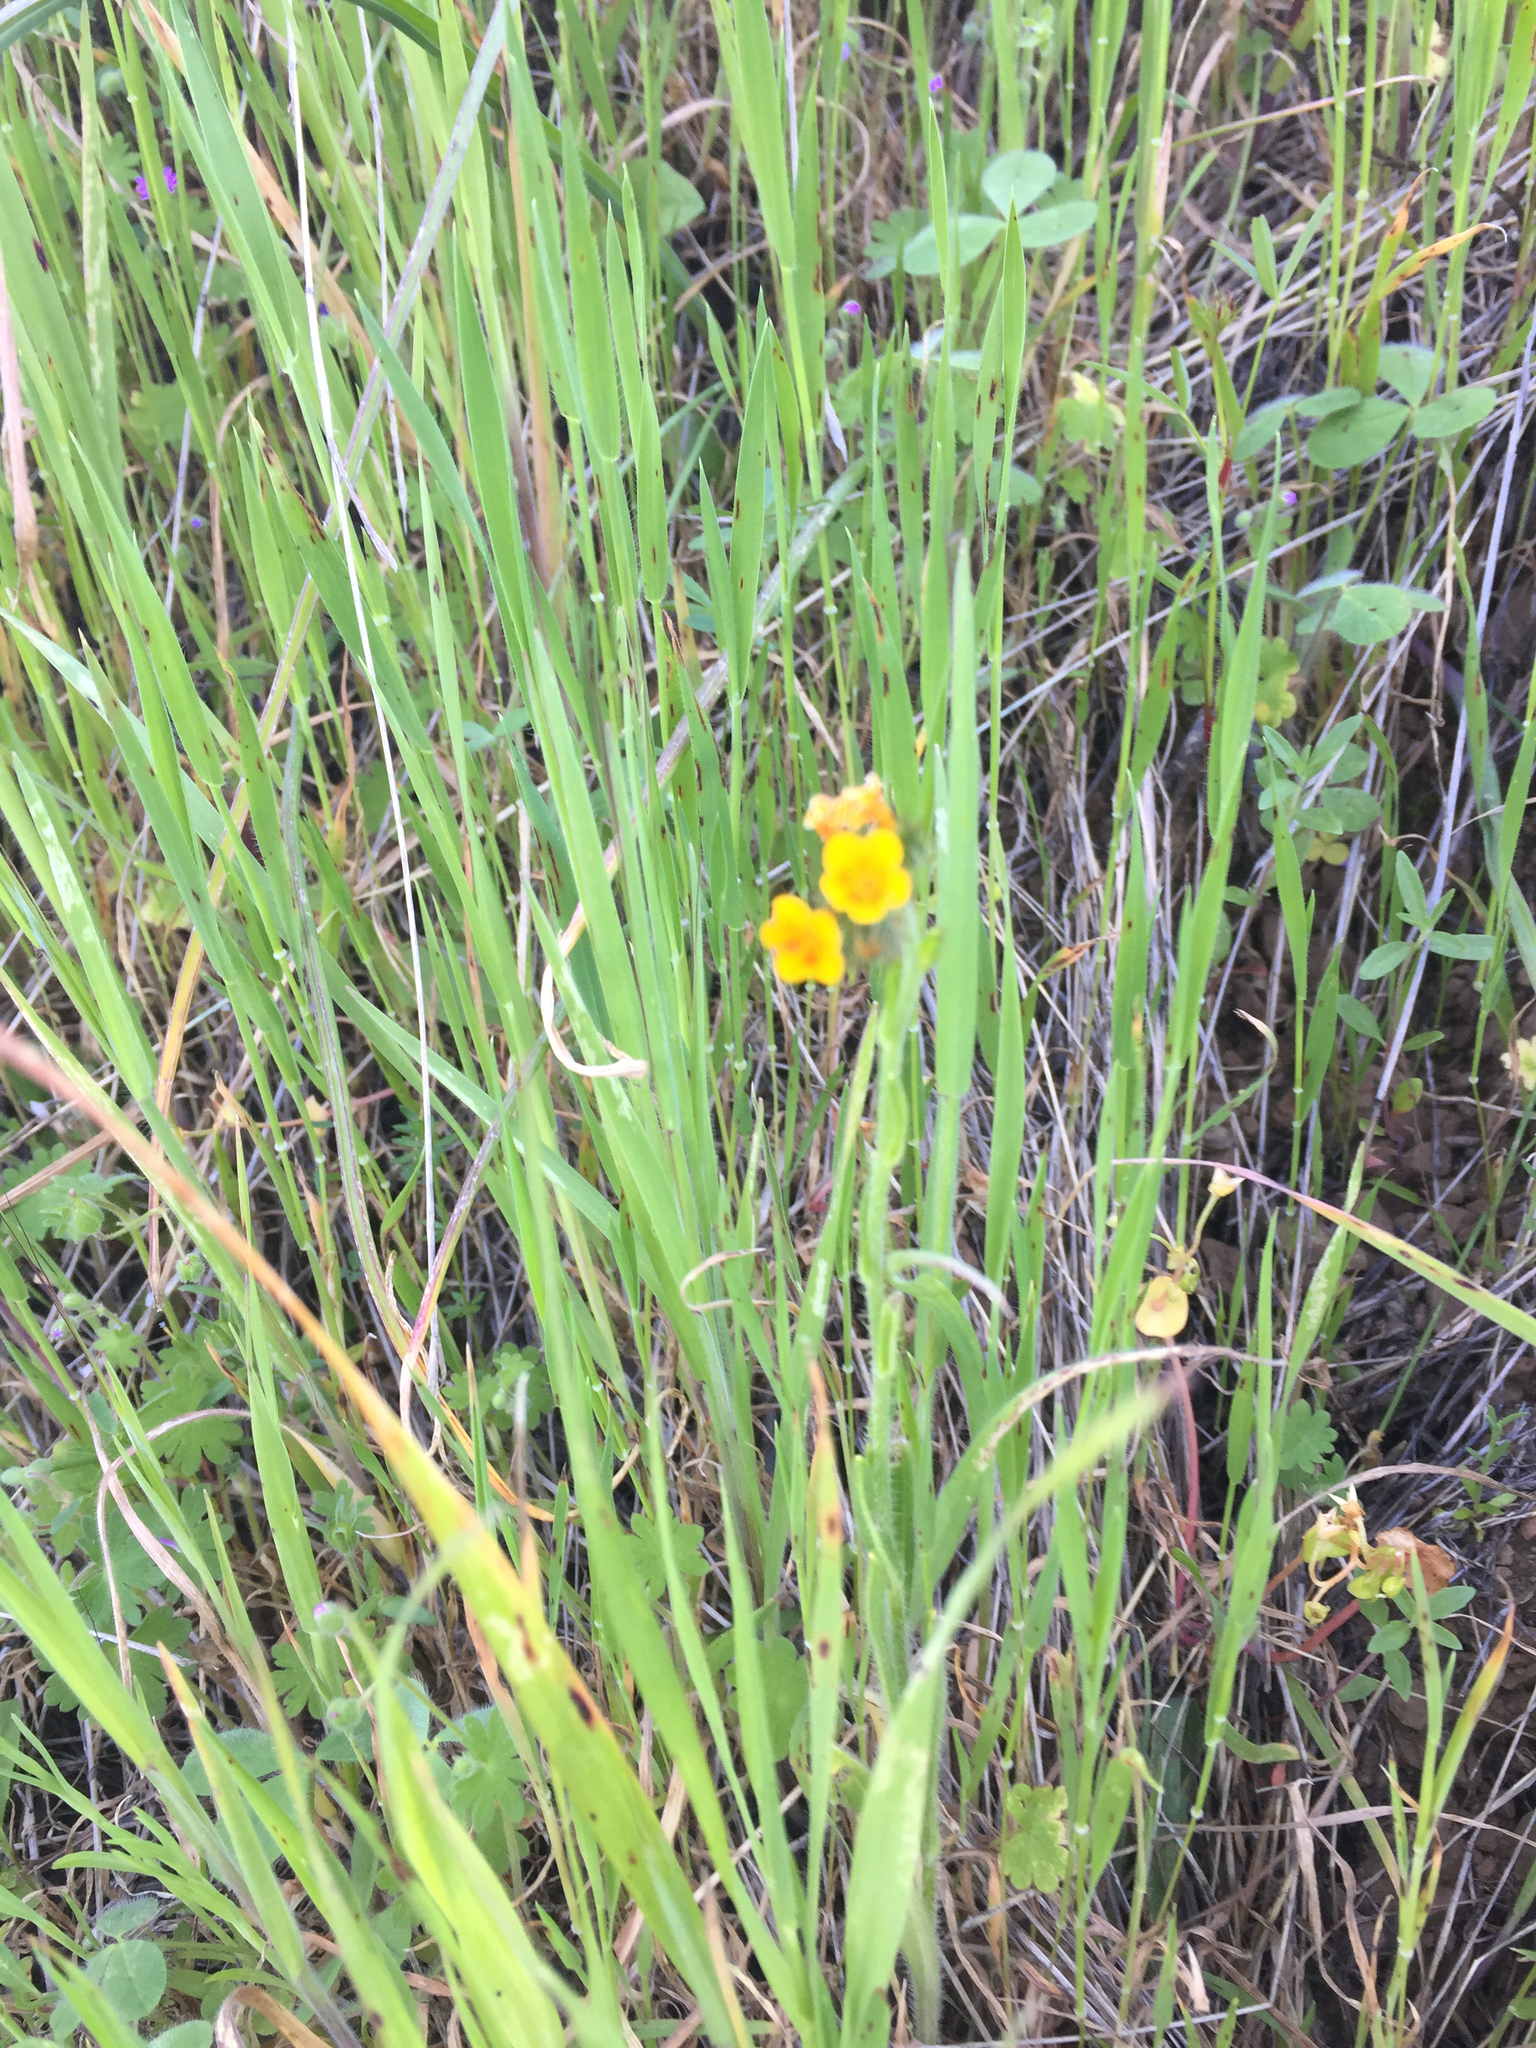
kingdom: Plantae
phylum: Tracheophyta
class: Magnoliopsida
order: Boraginales
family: Boraginaceae
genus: Amsinckia
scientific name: Amsinckia menziesii
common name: Menzies' fiddleneck
